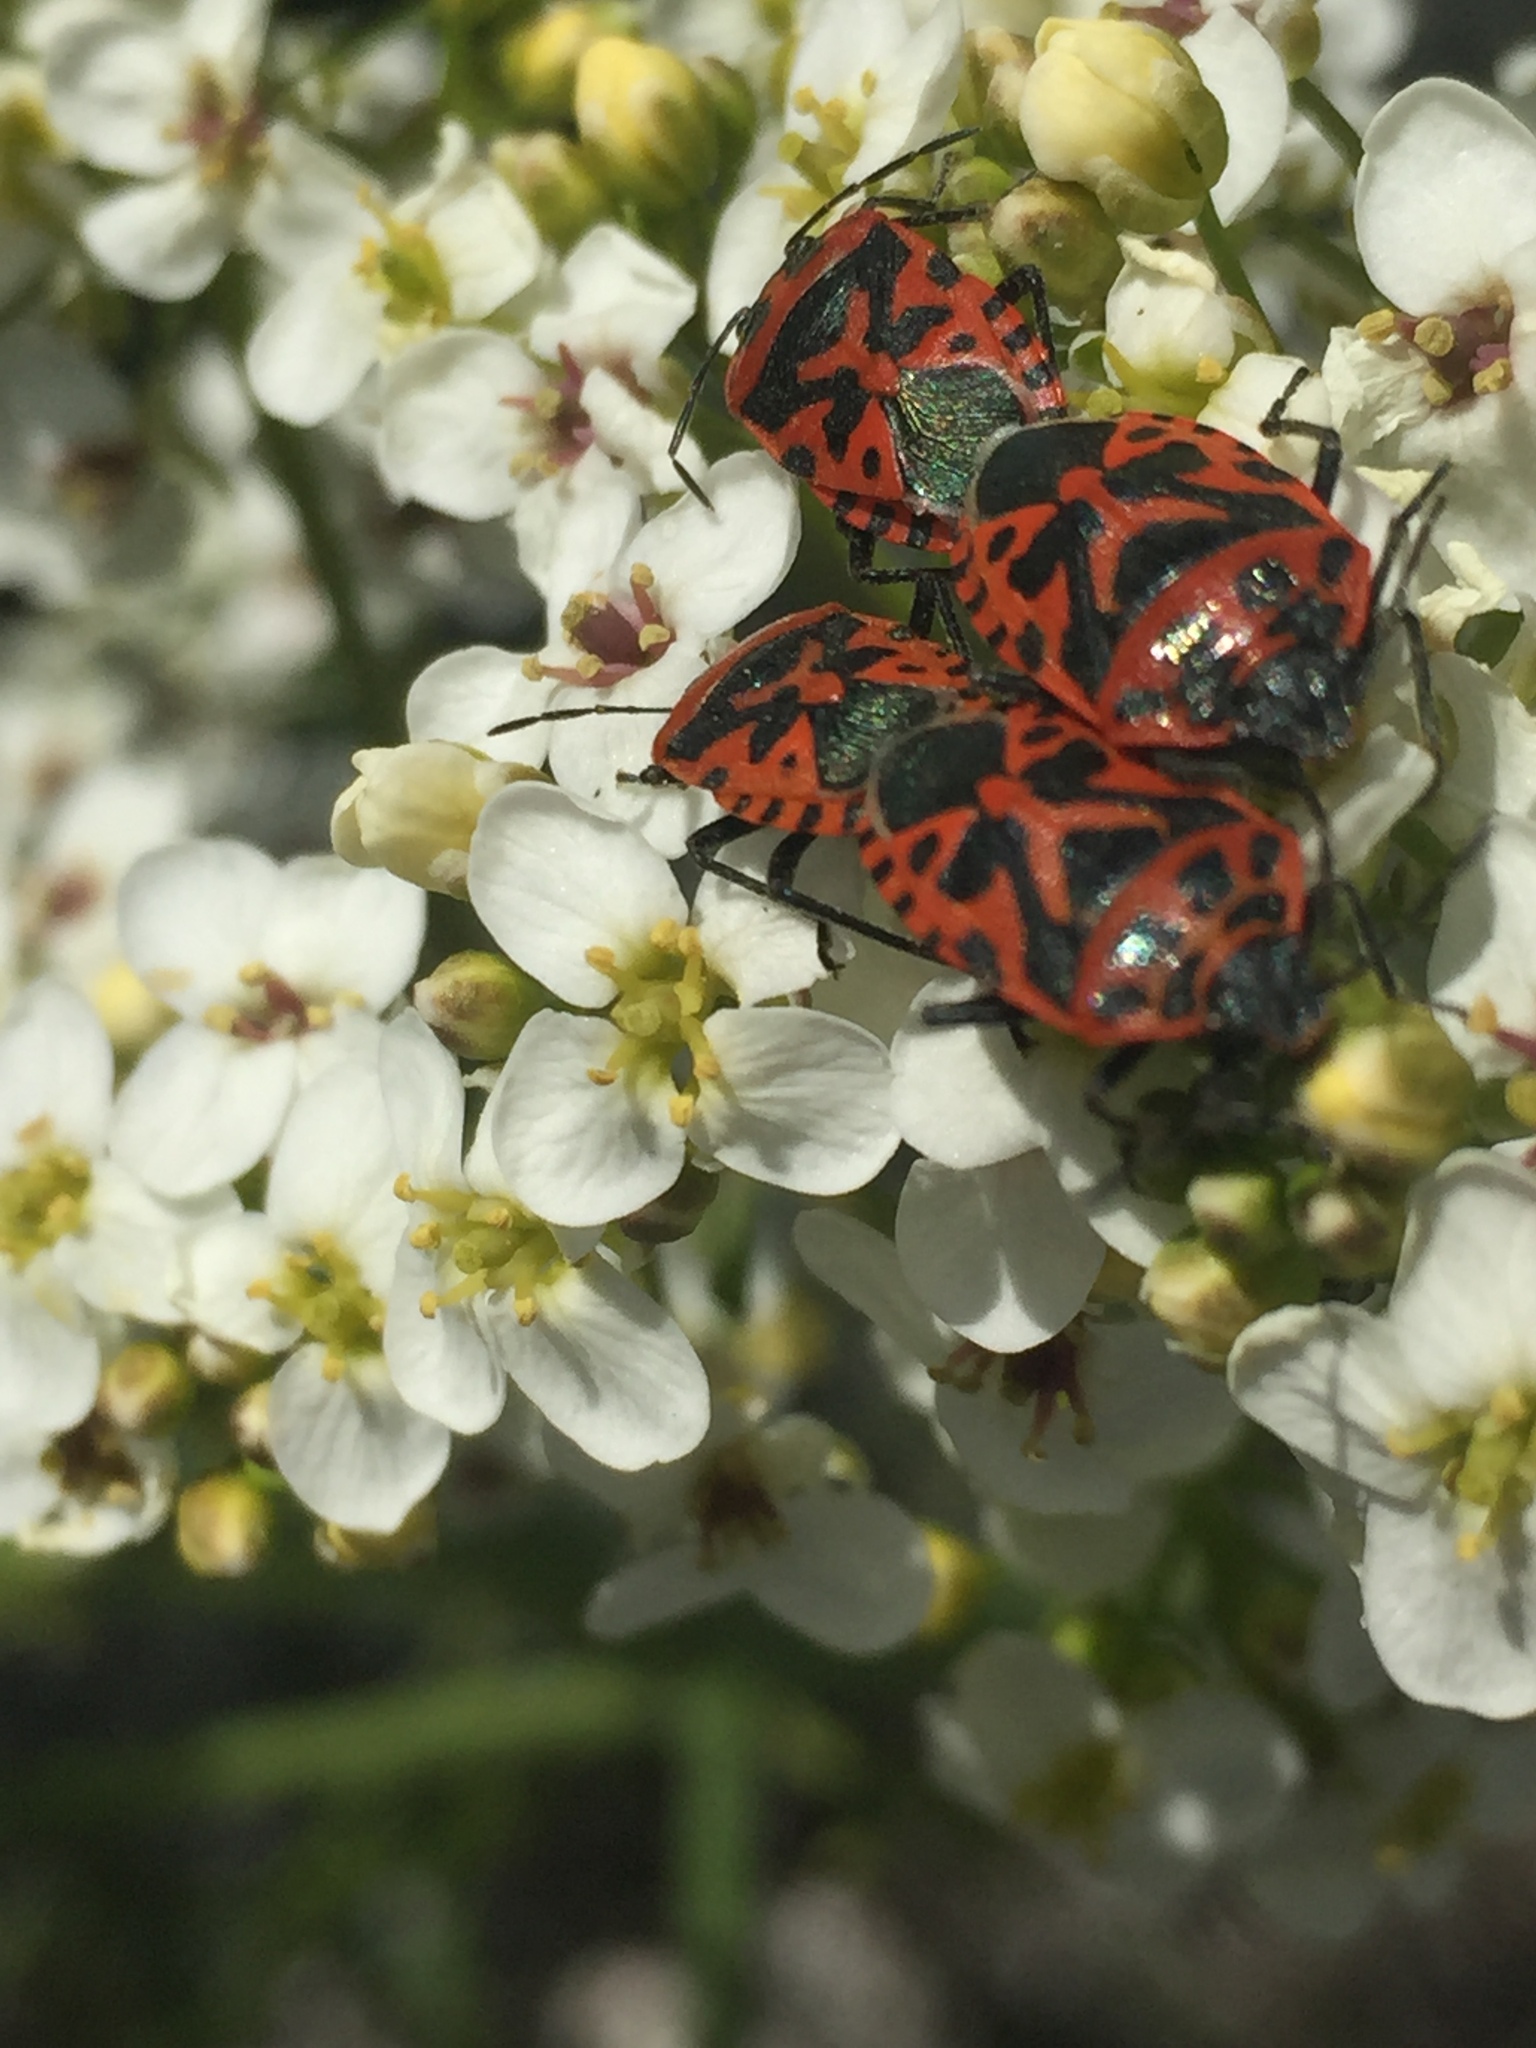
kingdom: Animalia
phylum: Arthropoda
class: Insecta
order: Hemiptera
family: Pentatomidae
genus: Eurydema
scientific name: Eurydema ventralis
